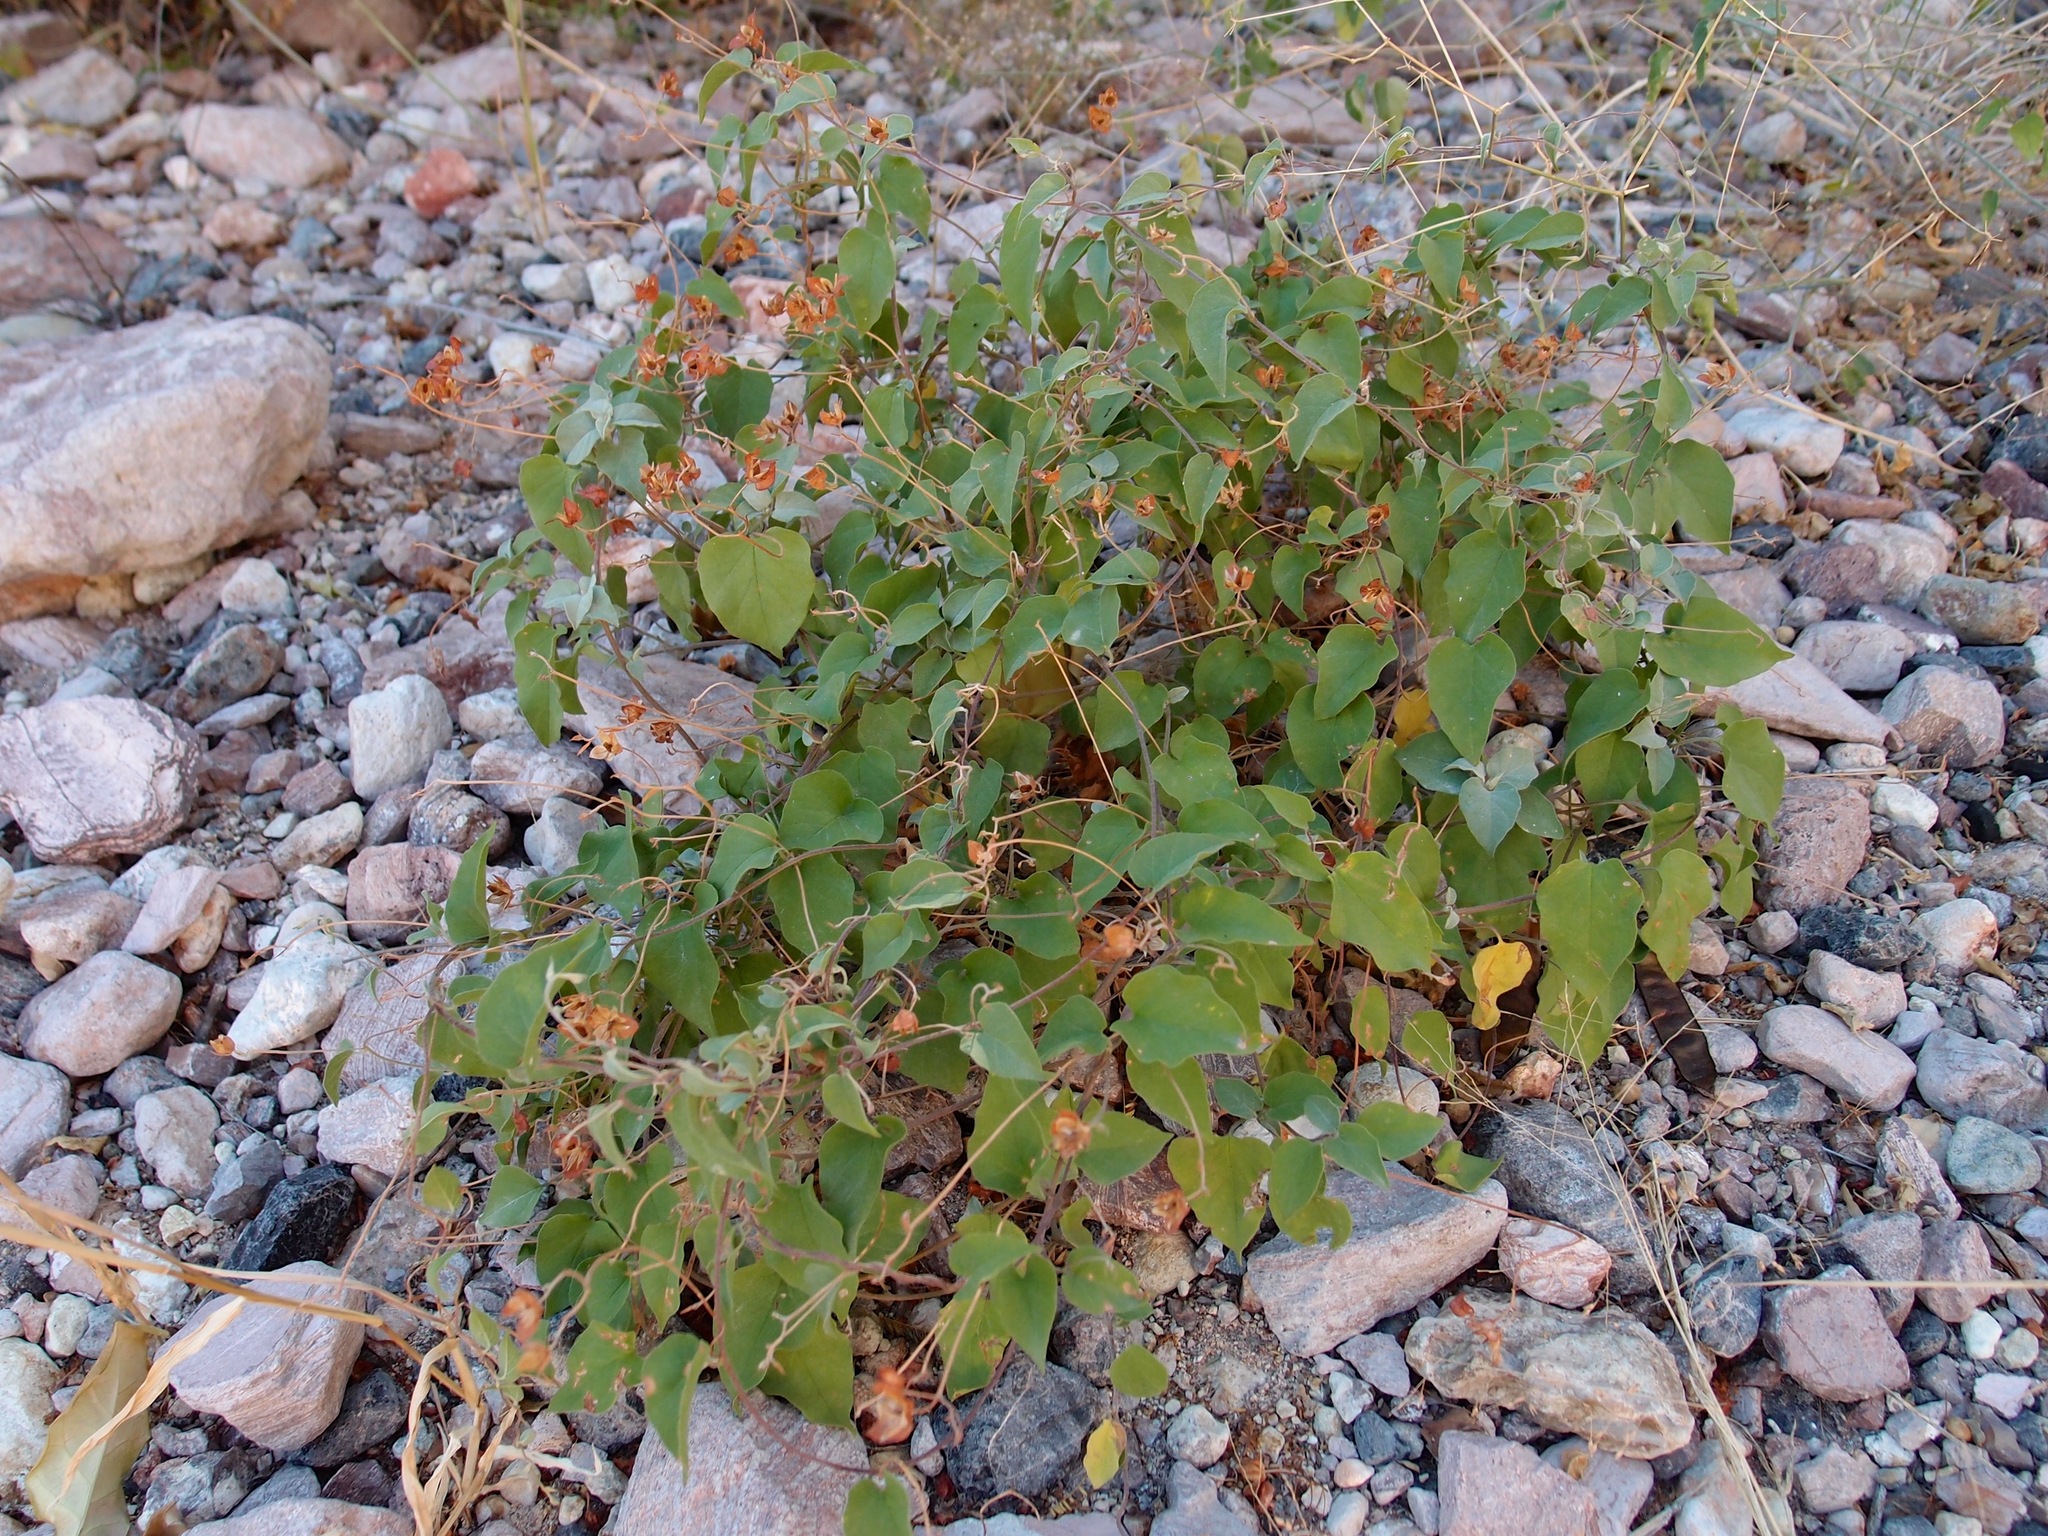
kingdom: Plantae
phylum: Tracheophyta
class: Magnoliopsida
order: Solanales
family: Convolvulaceae
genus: Jacquemontia
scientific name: Jacquemontia pringlei
